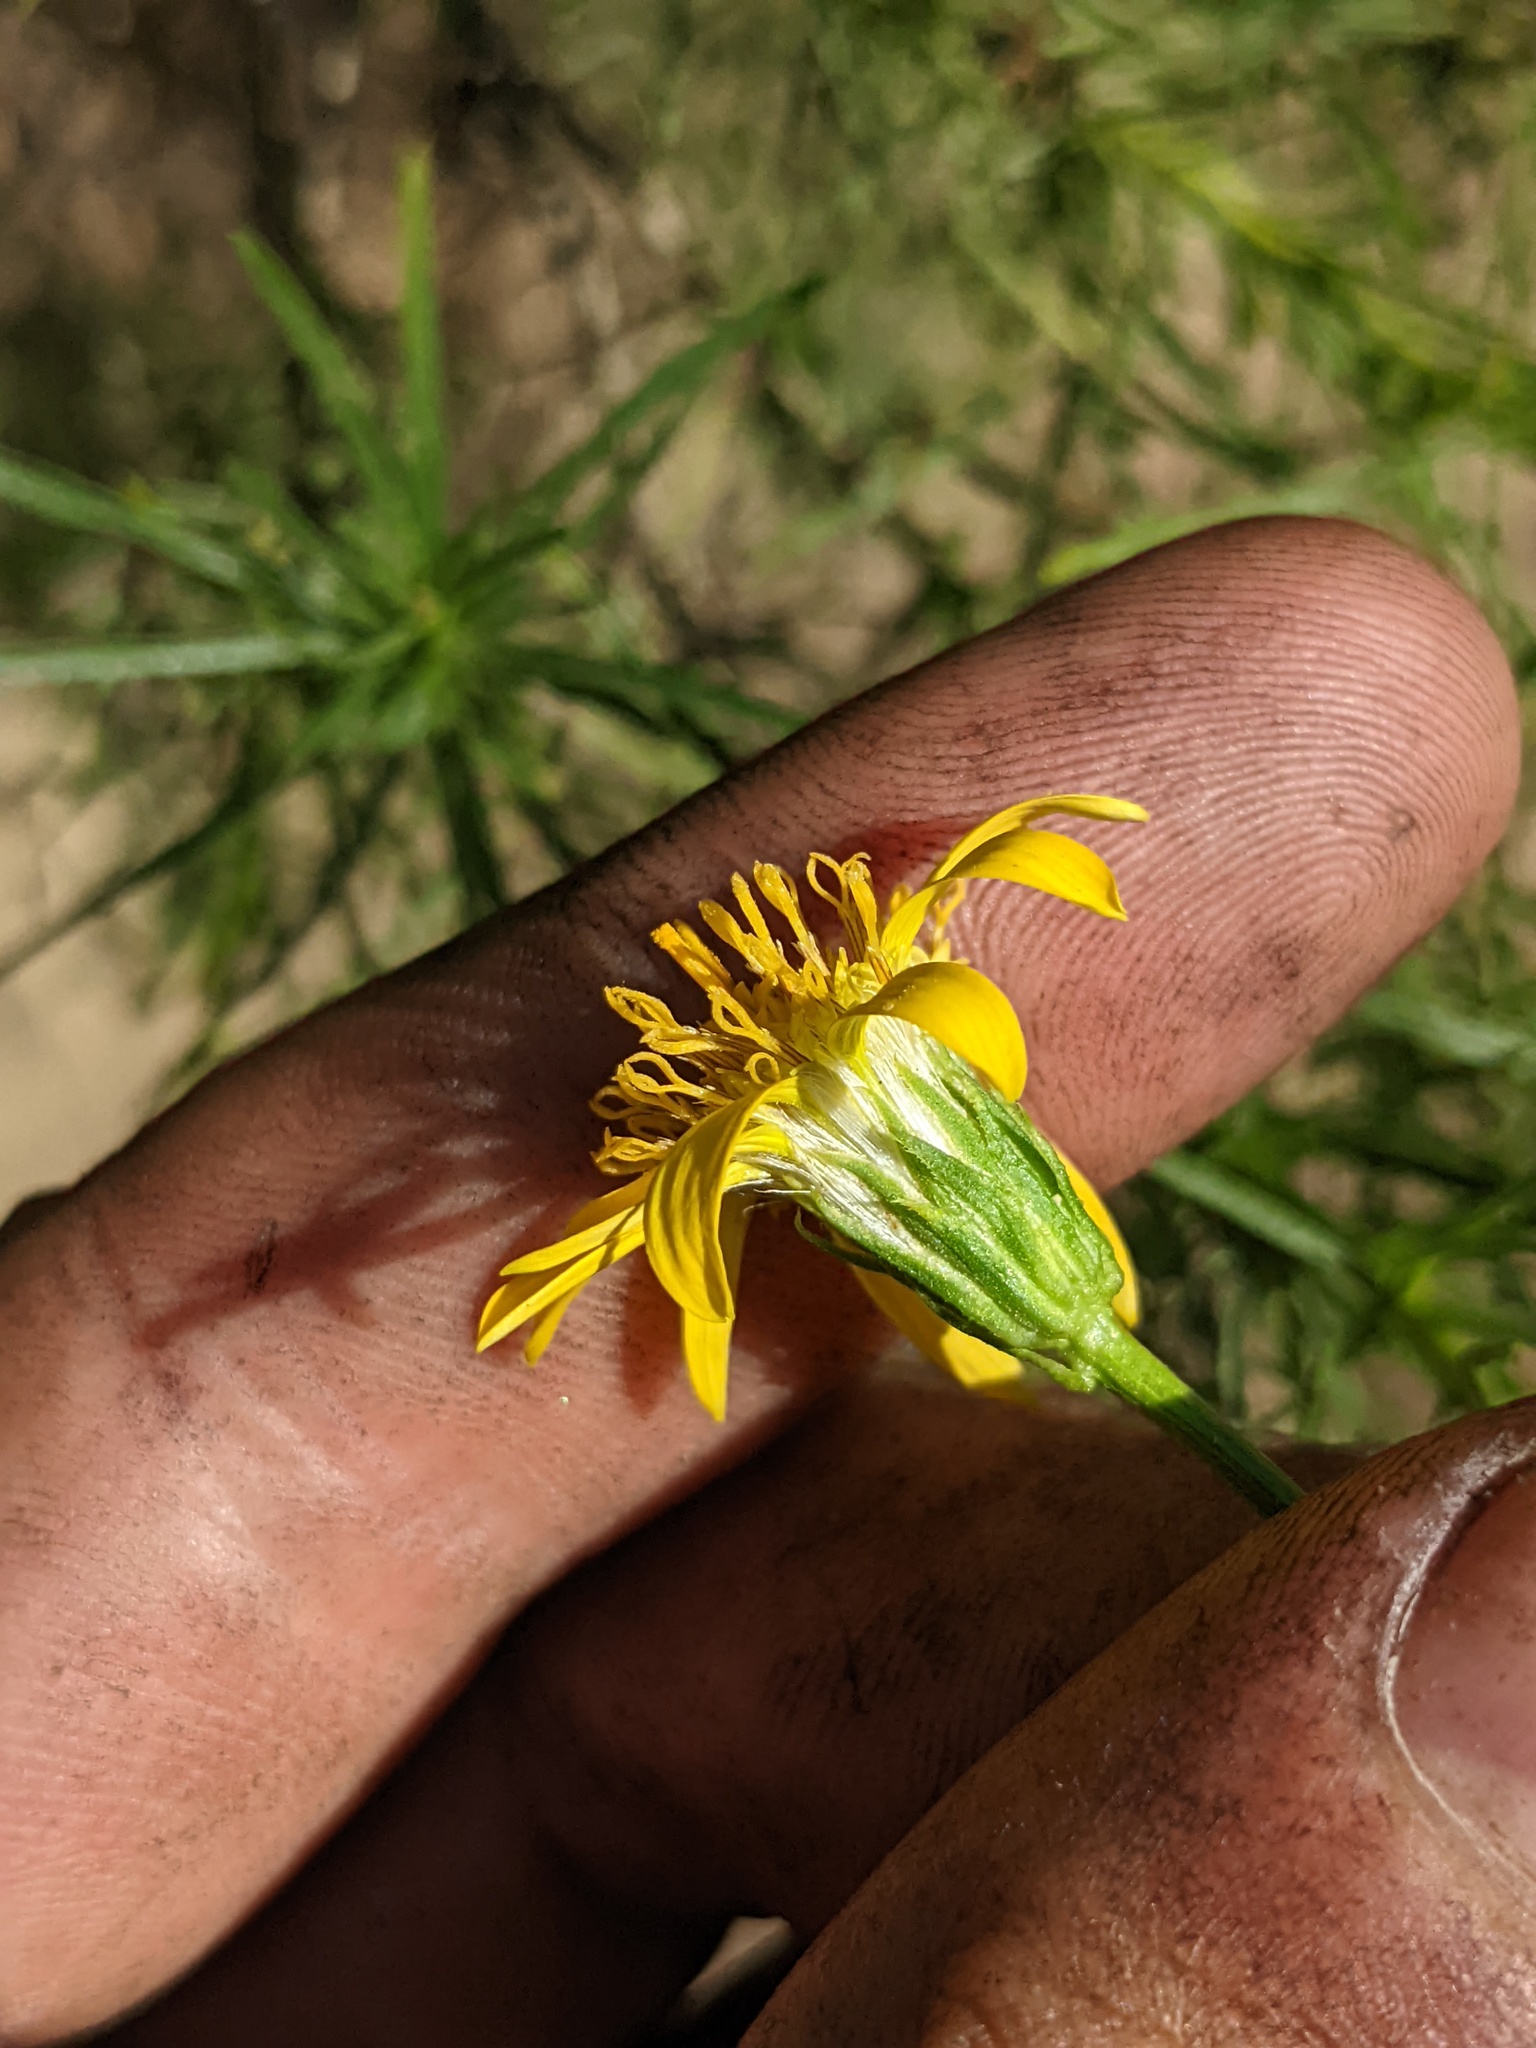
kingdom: Plantae
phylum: Tracheophyta
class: Magnoliopsida
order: Asterales
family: Asteraceae
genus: Ericameria
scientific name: Ericameria linearifolia
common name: Interior goldenbush
